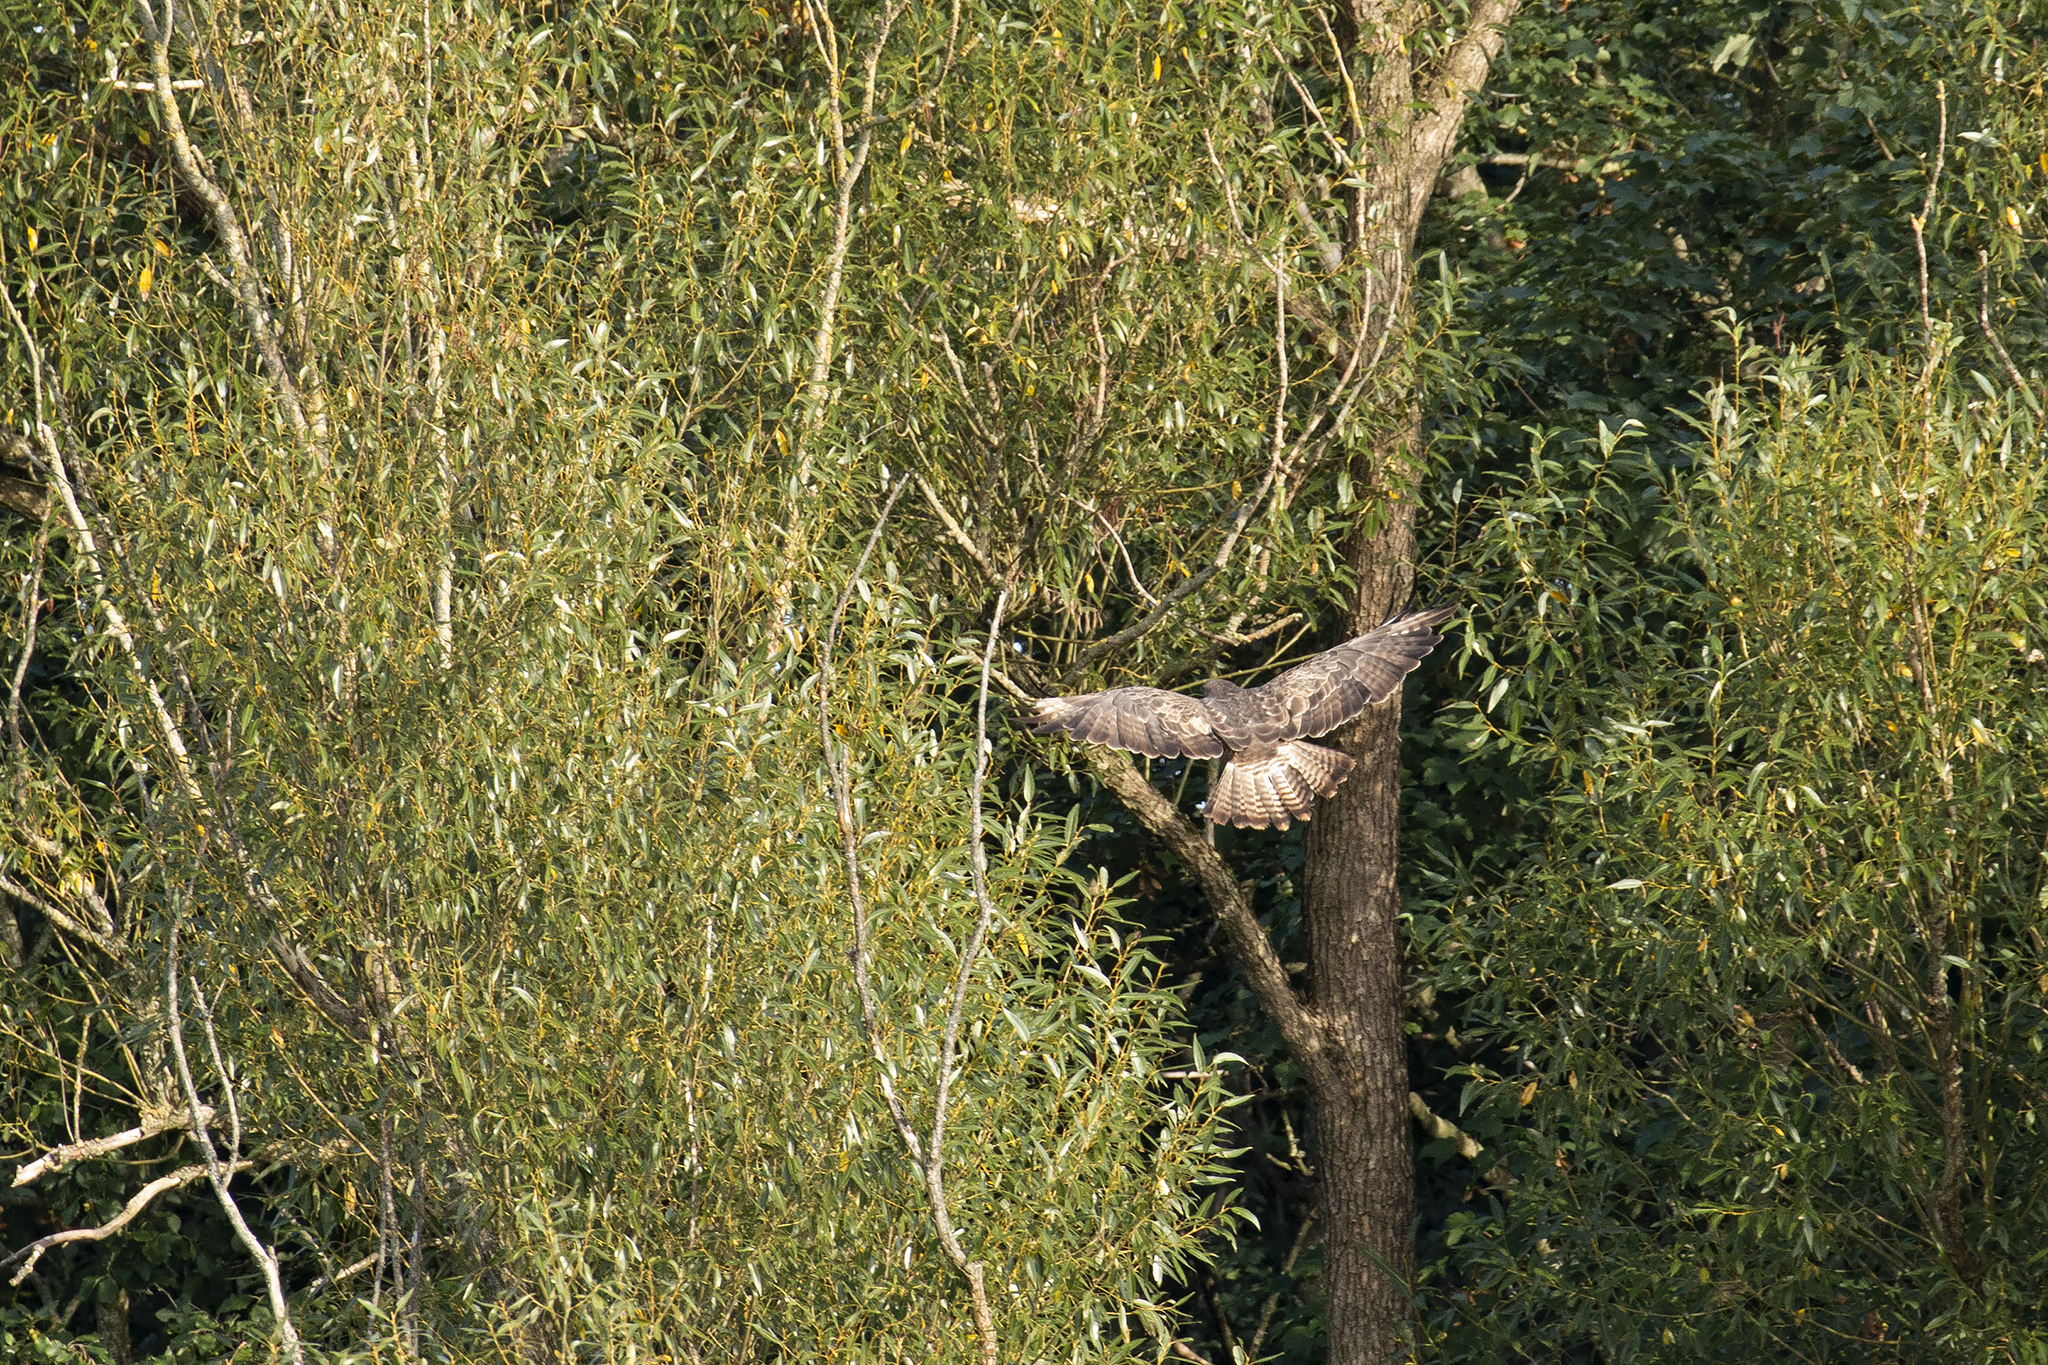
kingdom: Animalia
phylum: Chordata
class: Aves
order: Accipitriformes
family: Accipitridae
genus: Buteo
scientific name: Buteo buteo
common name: Common buzzard
